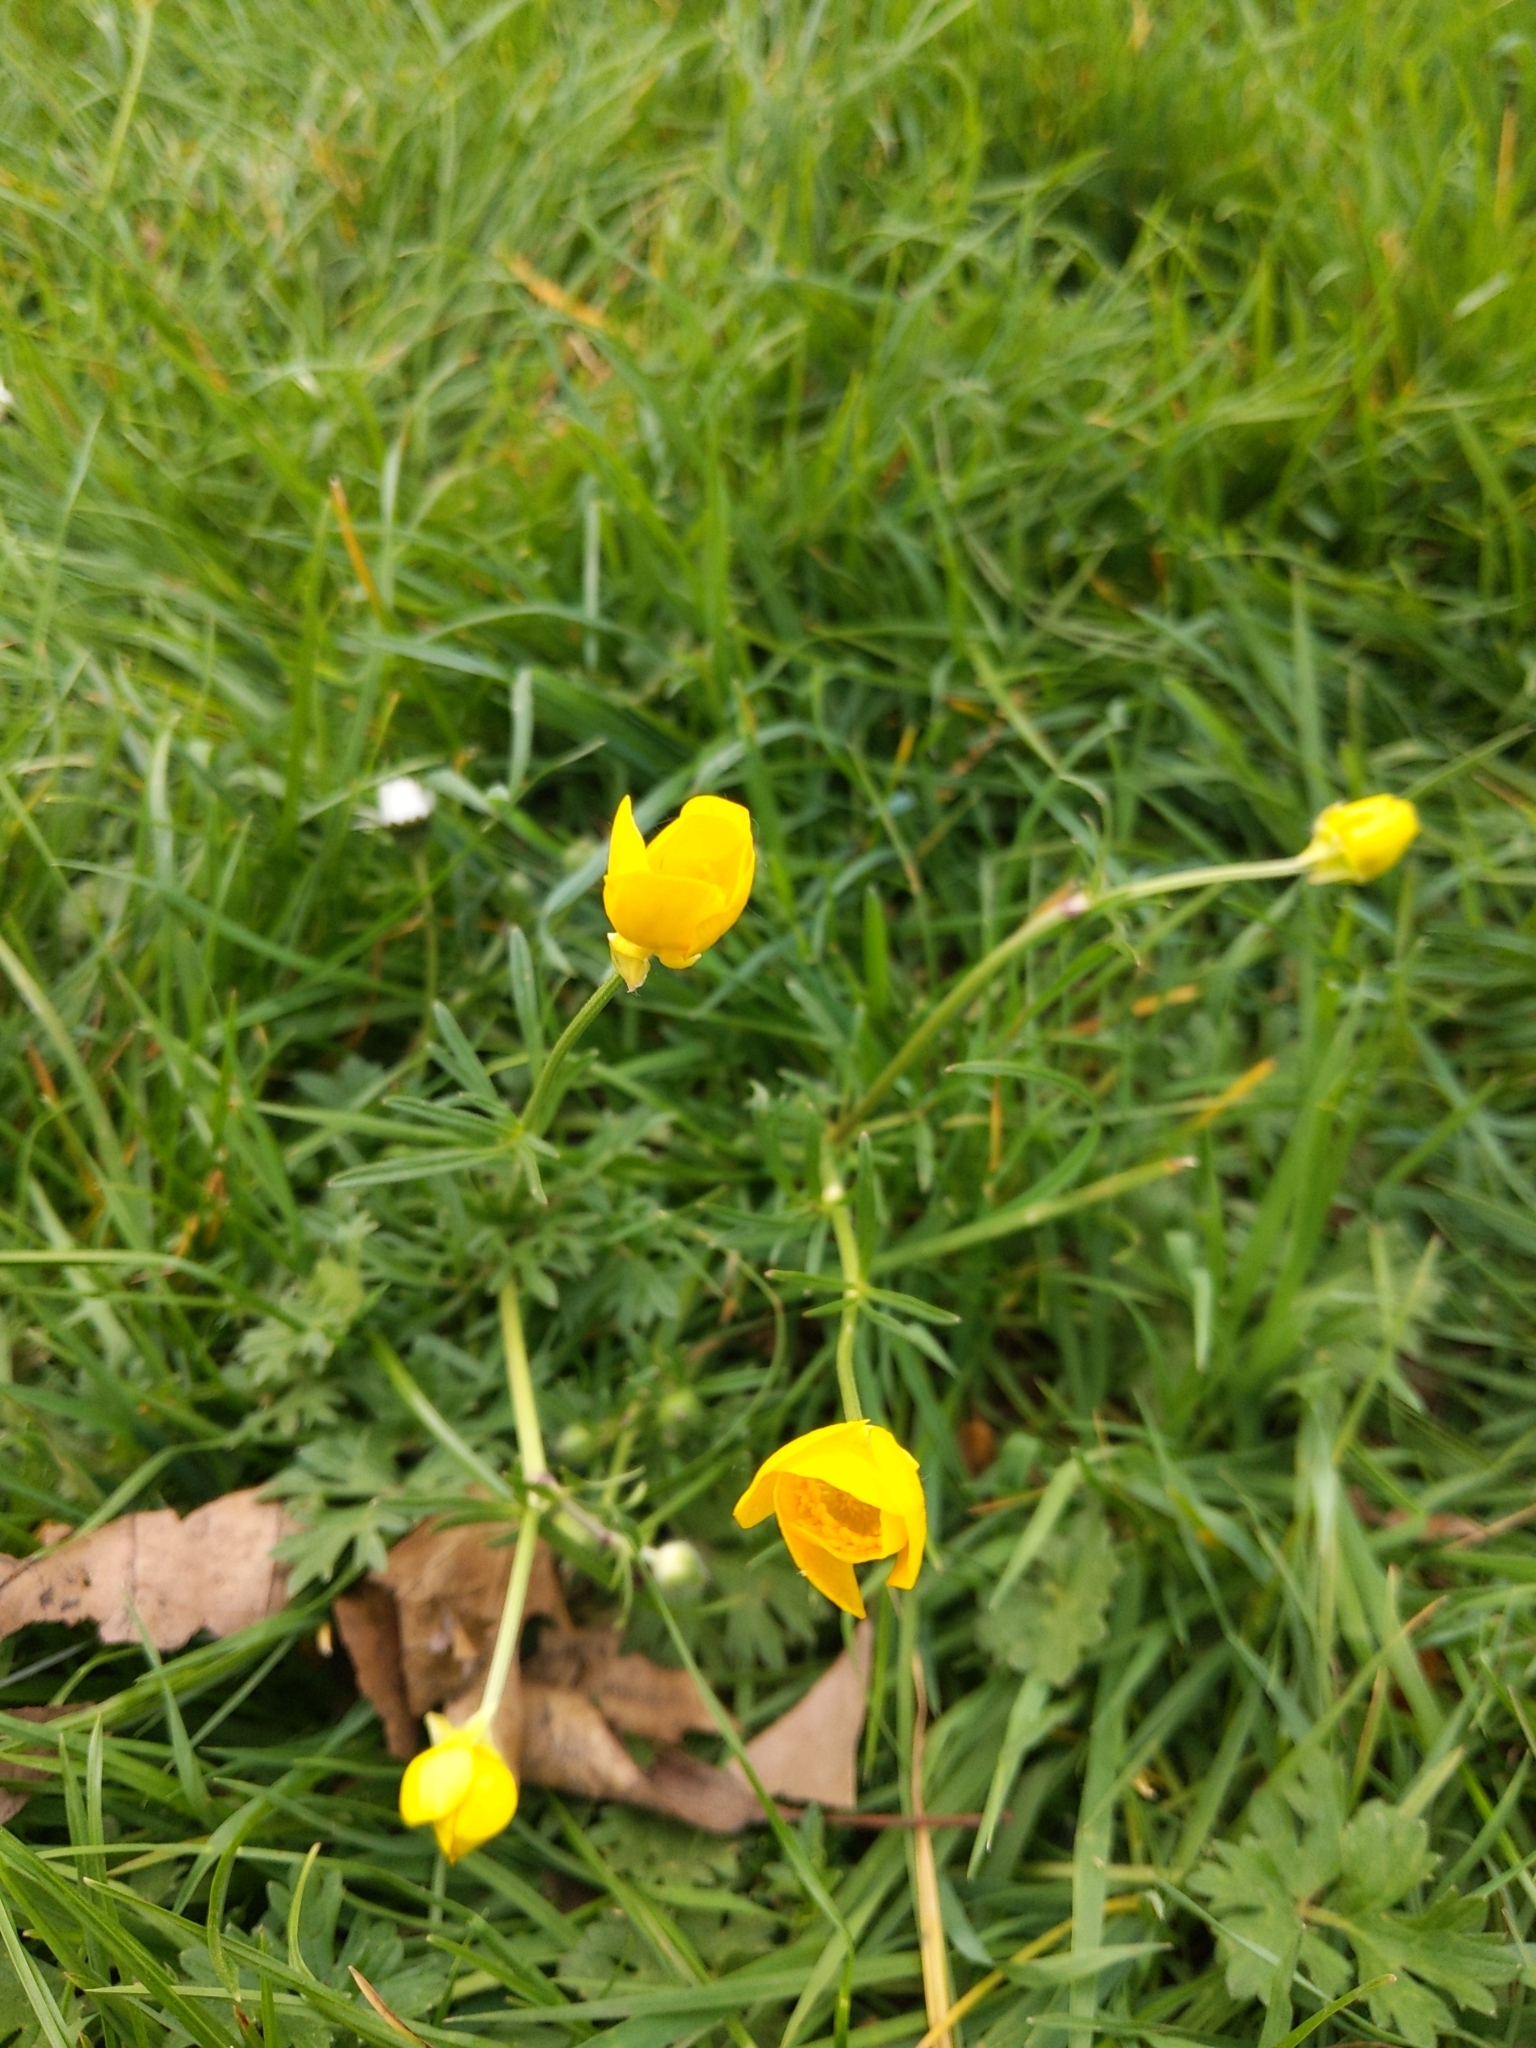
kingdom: Plantae
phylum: Tracheophyta
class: Magnoliopsida
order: Ranunculales
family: Ranunculaceae
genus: Ranunculus
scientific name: Ranunculus bulbosus
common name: Bulbous buttercup
